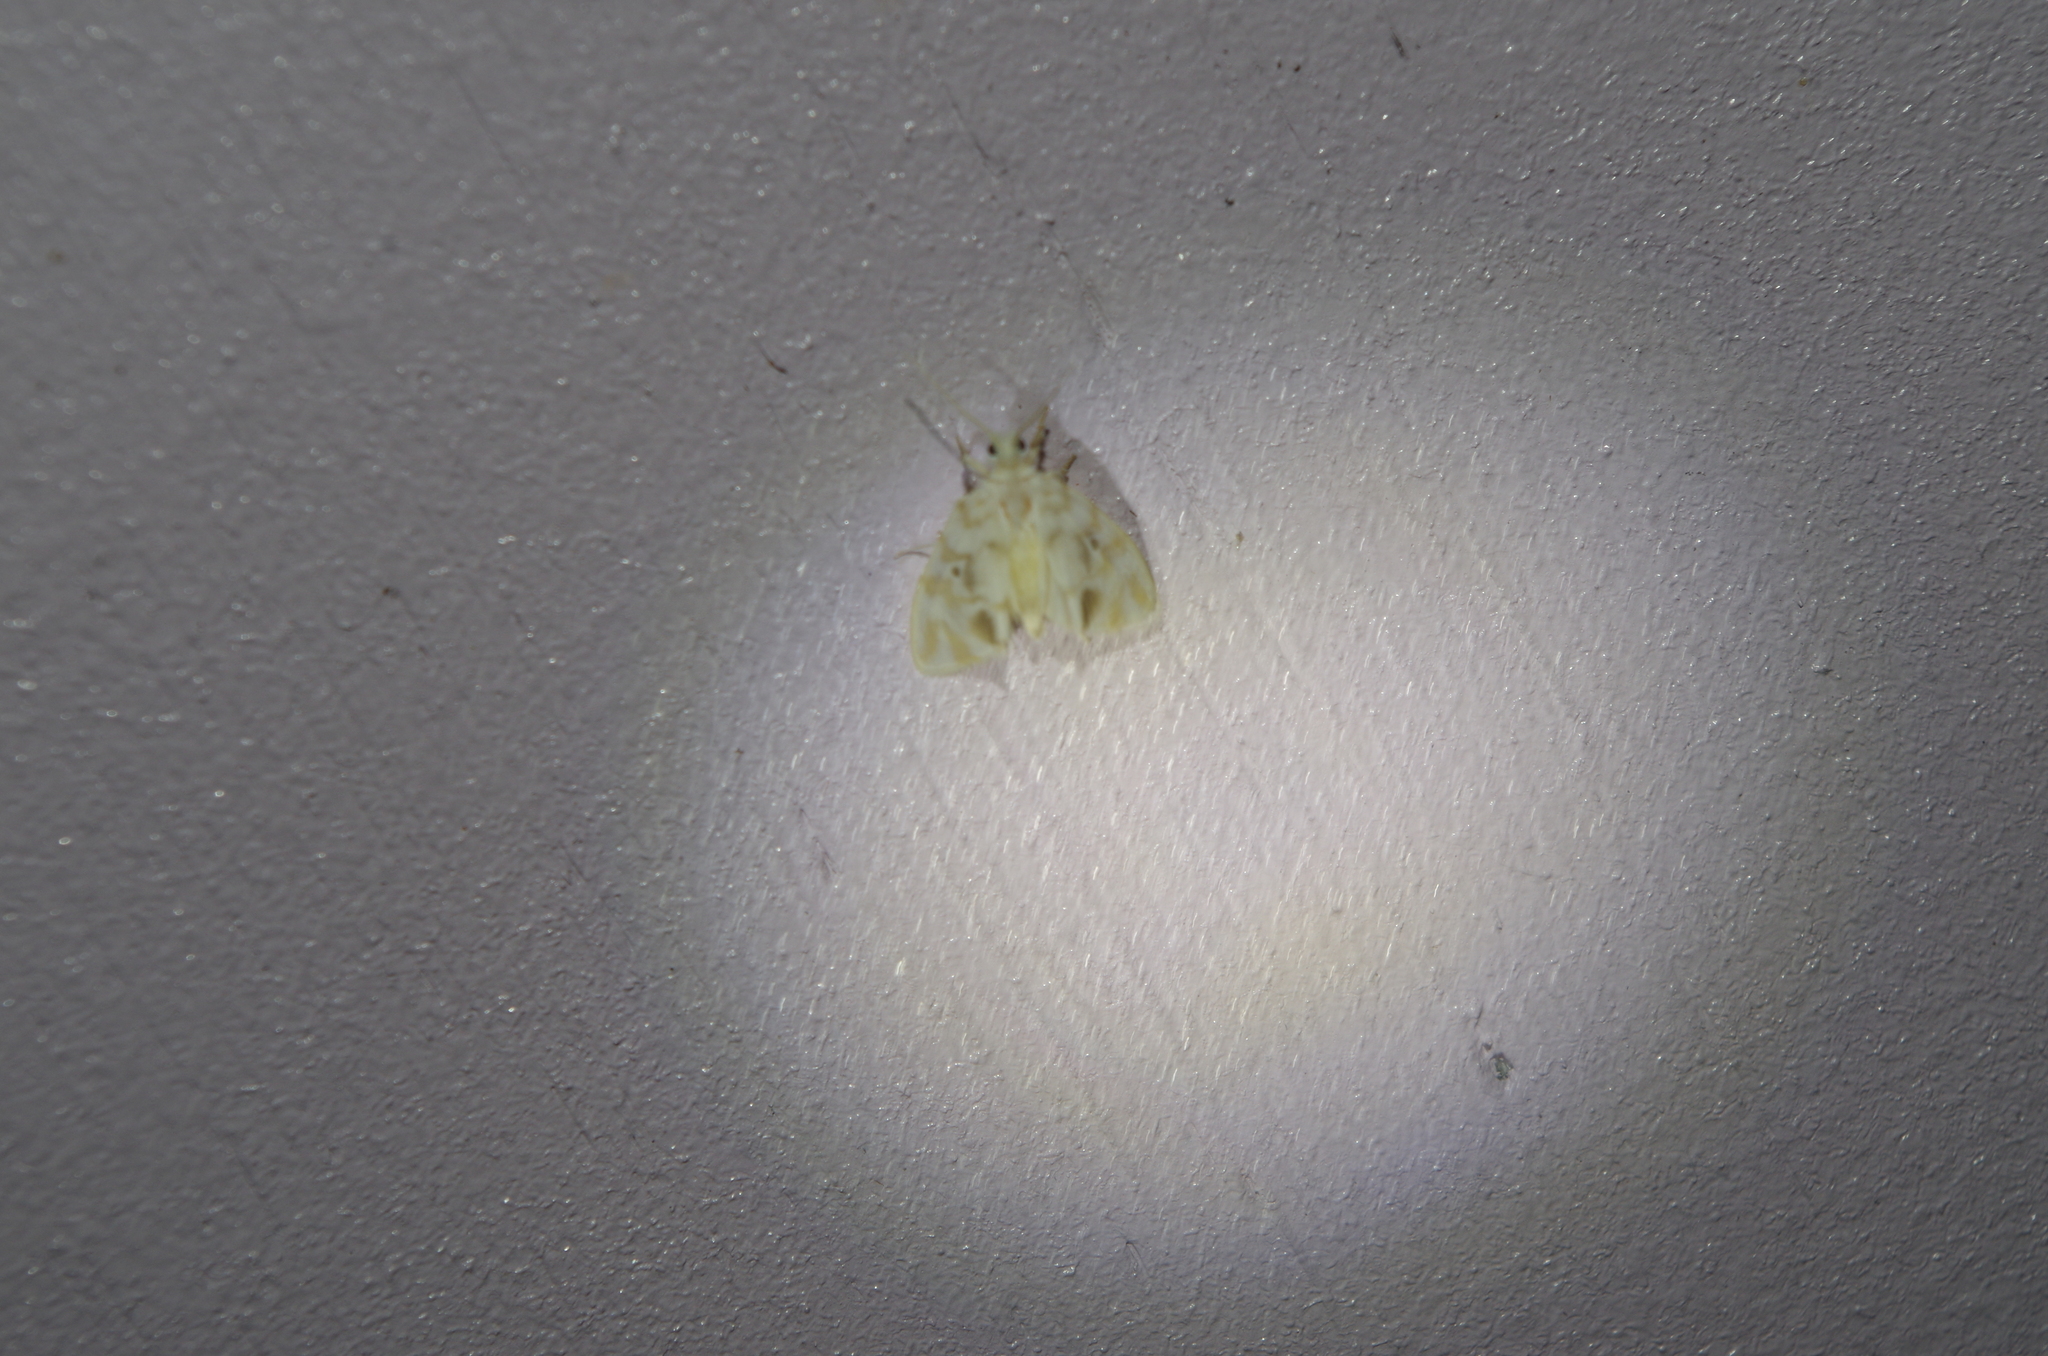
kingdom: Animalia
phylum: Arthropoda
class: Insecta
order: Lepidoptera
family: Erebidae
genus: Nudaria
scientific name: Nudaria ranruna
